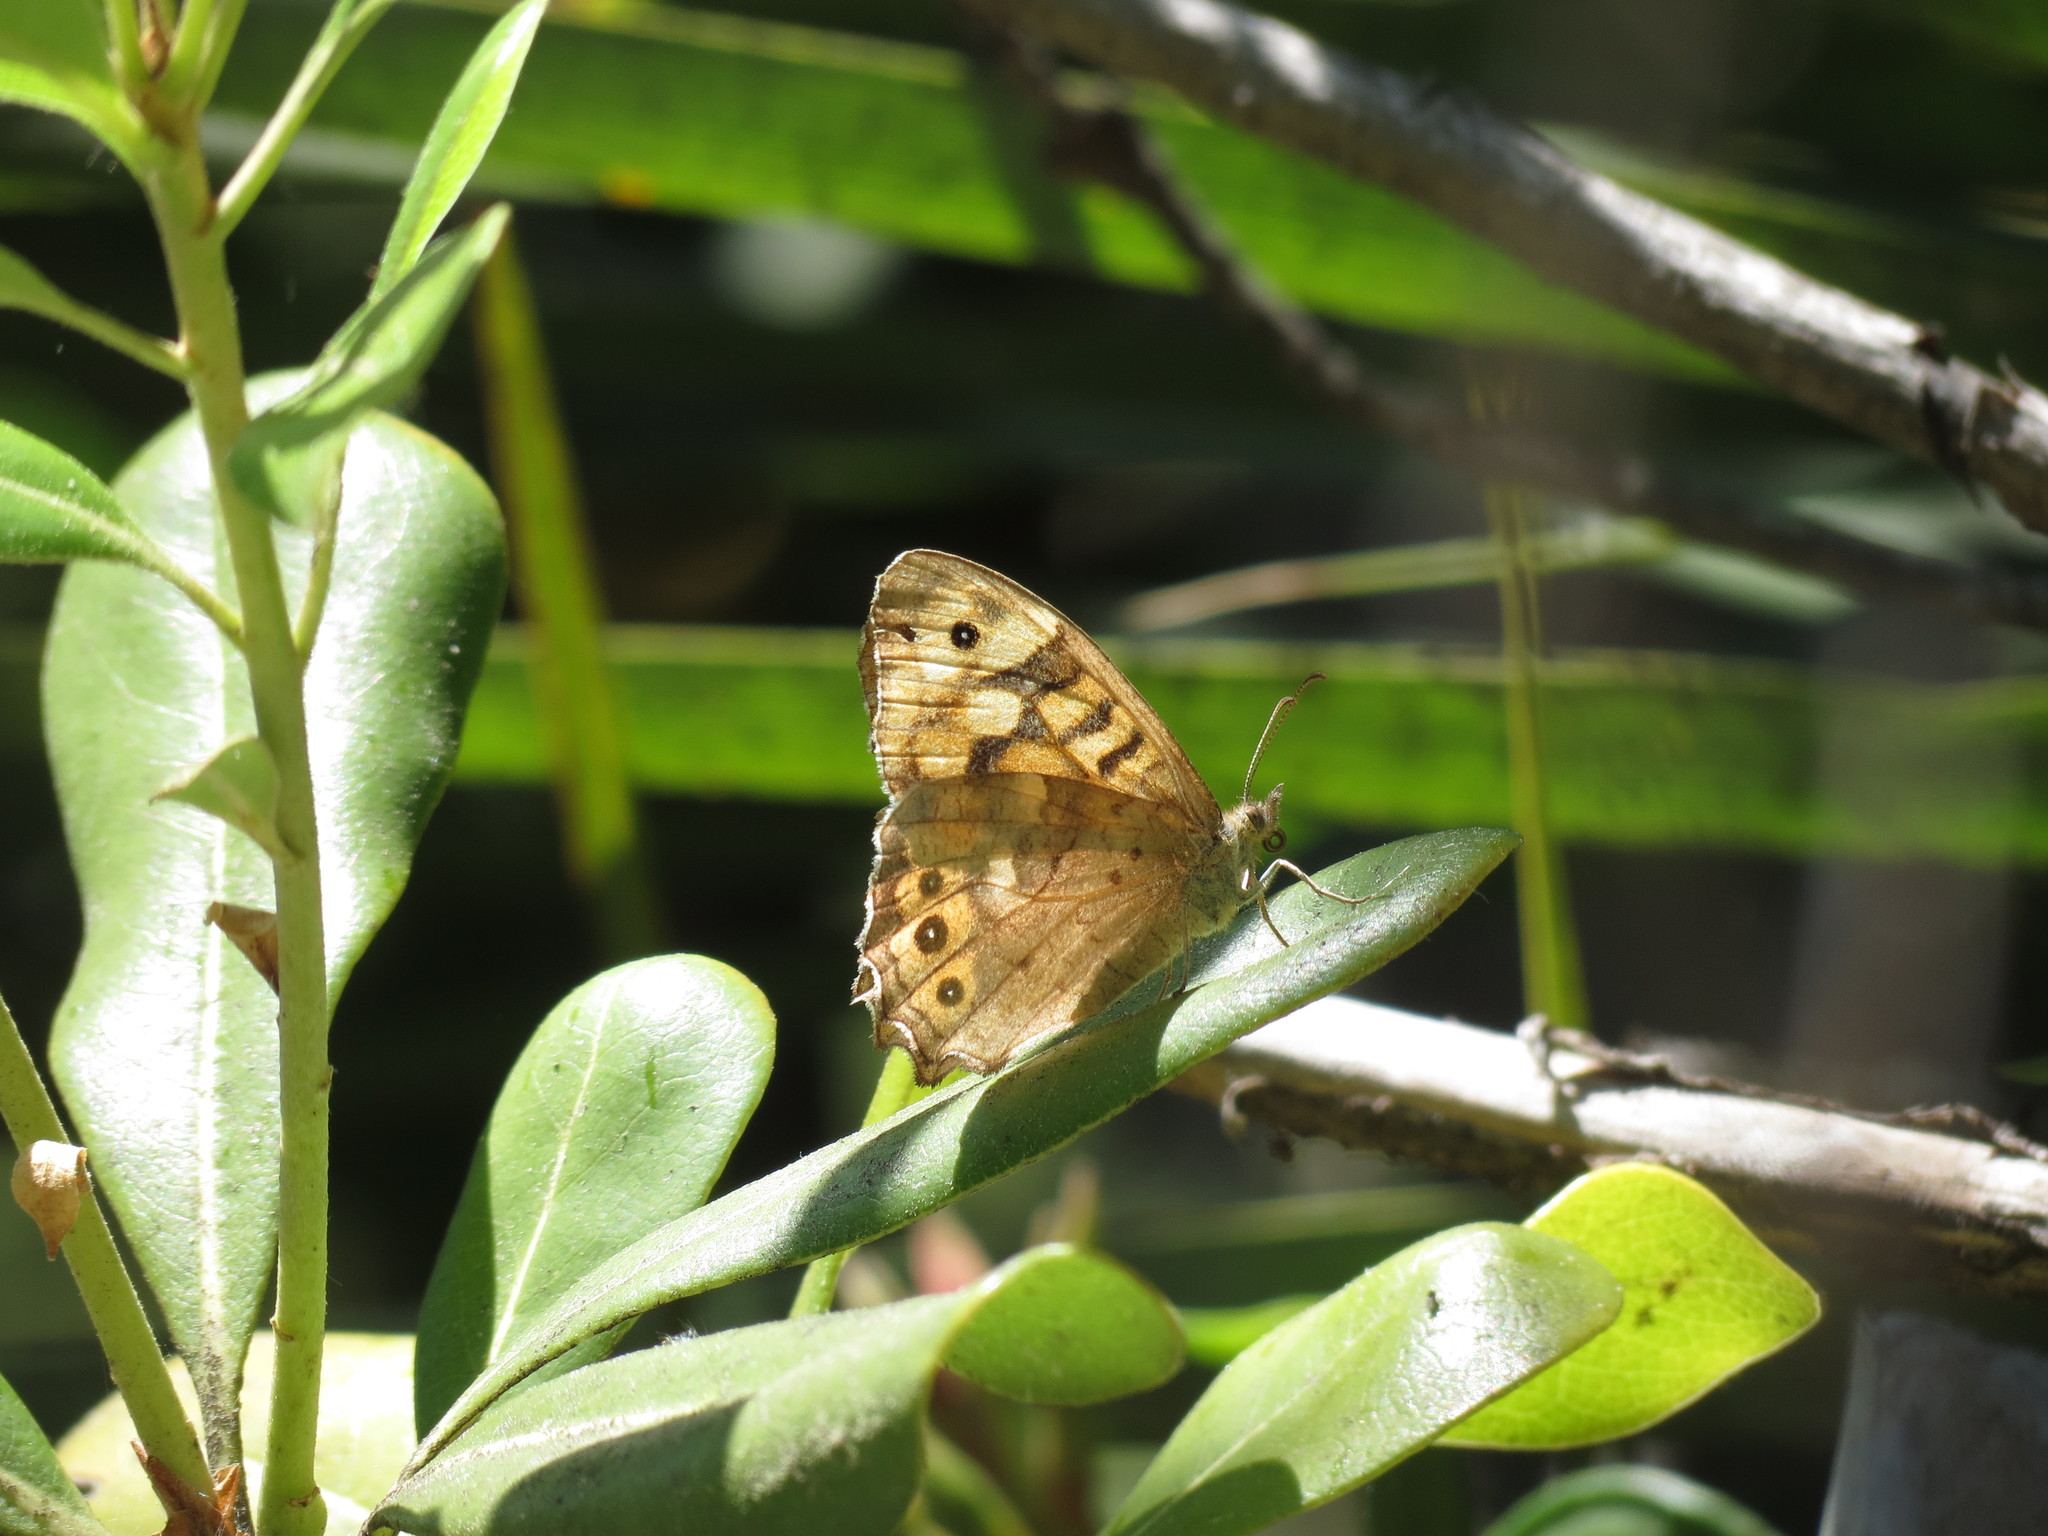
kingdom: Animalia
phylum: Arthropoda
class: Insecta
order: Lepidoptera
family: Nymphalidae
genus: Pararge
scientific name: Pararge aegeria
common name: Speckled wood
